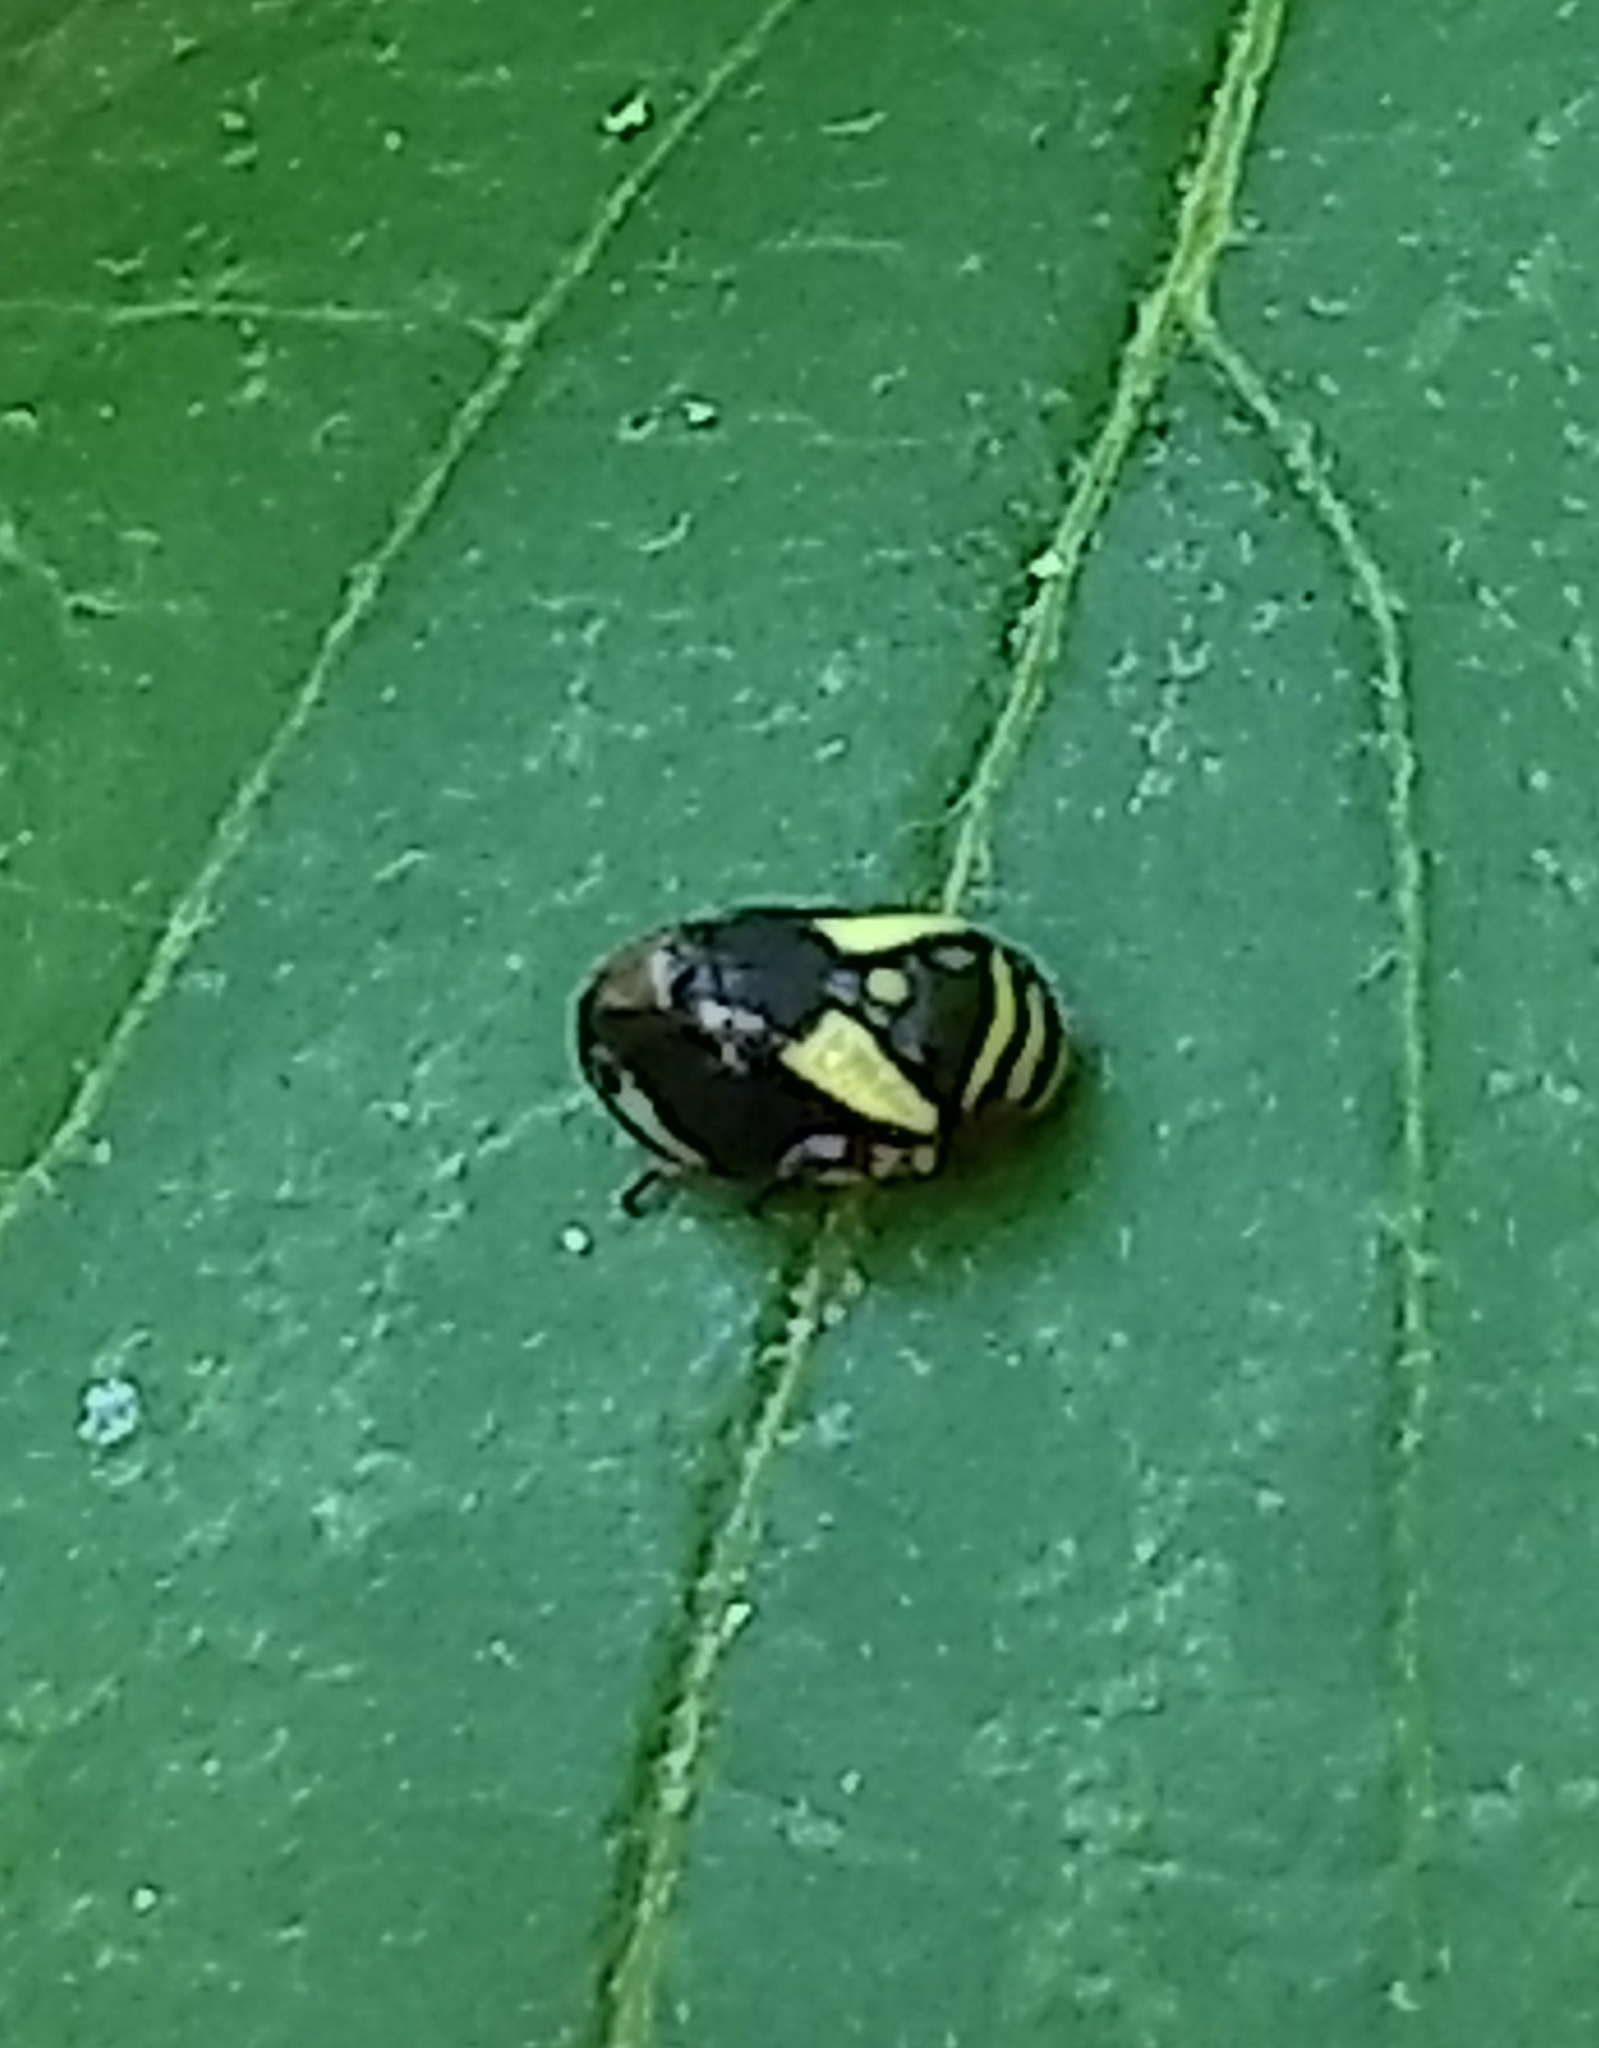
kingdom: Animalia
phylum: Arthropoda
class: Insecta
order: Hemiptera
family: Clastopteridae
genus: Clastoptera
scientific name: Clastoptera proteus
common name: Dogwood spittlebug
